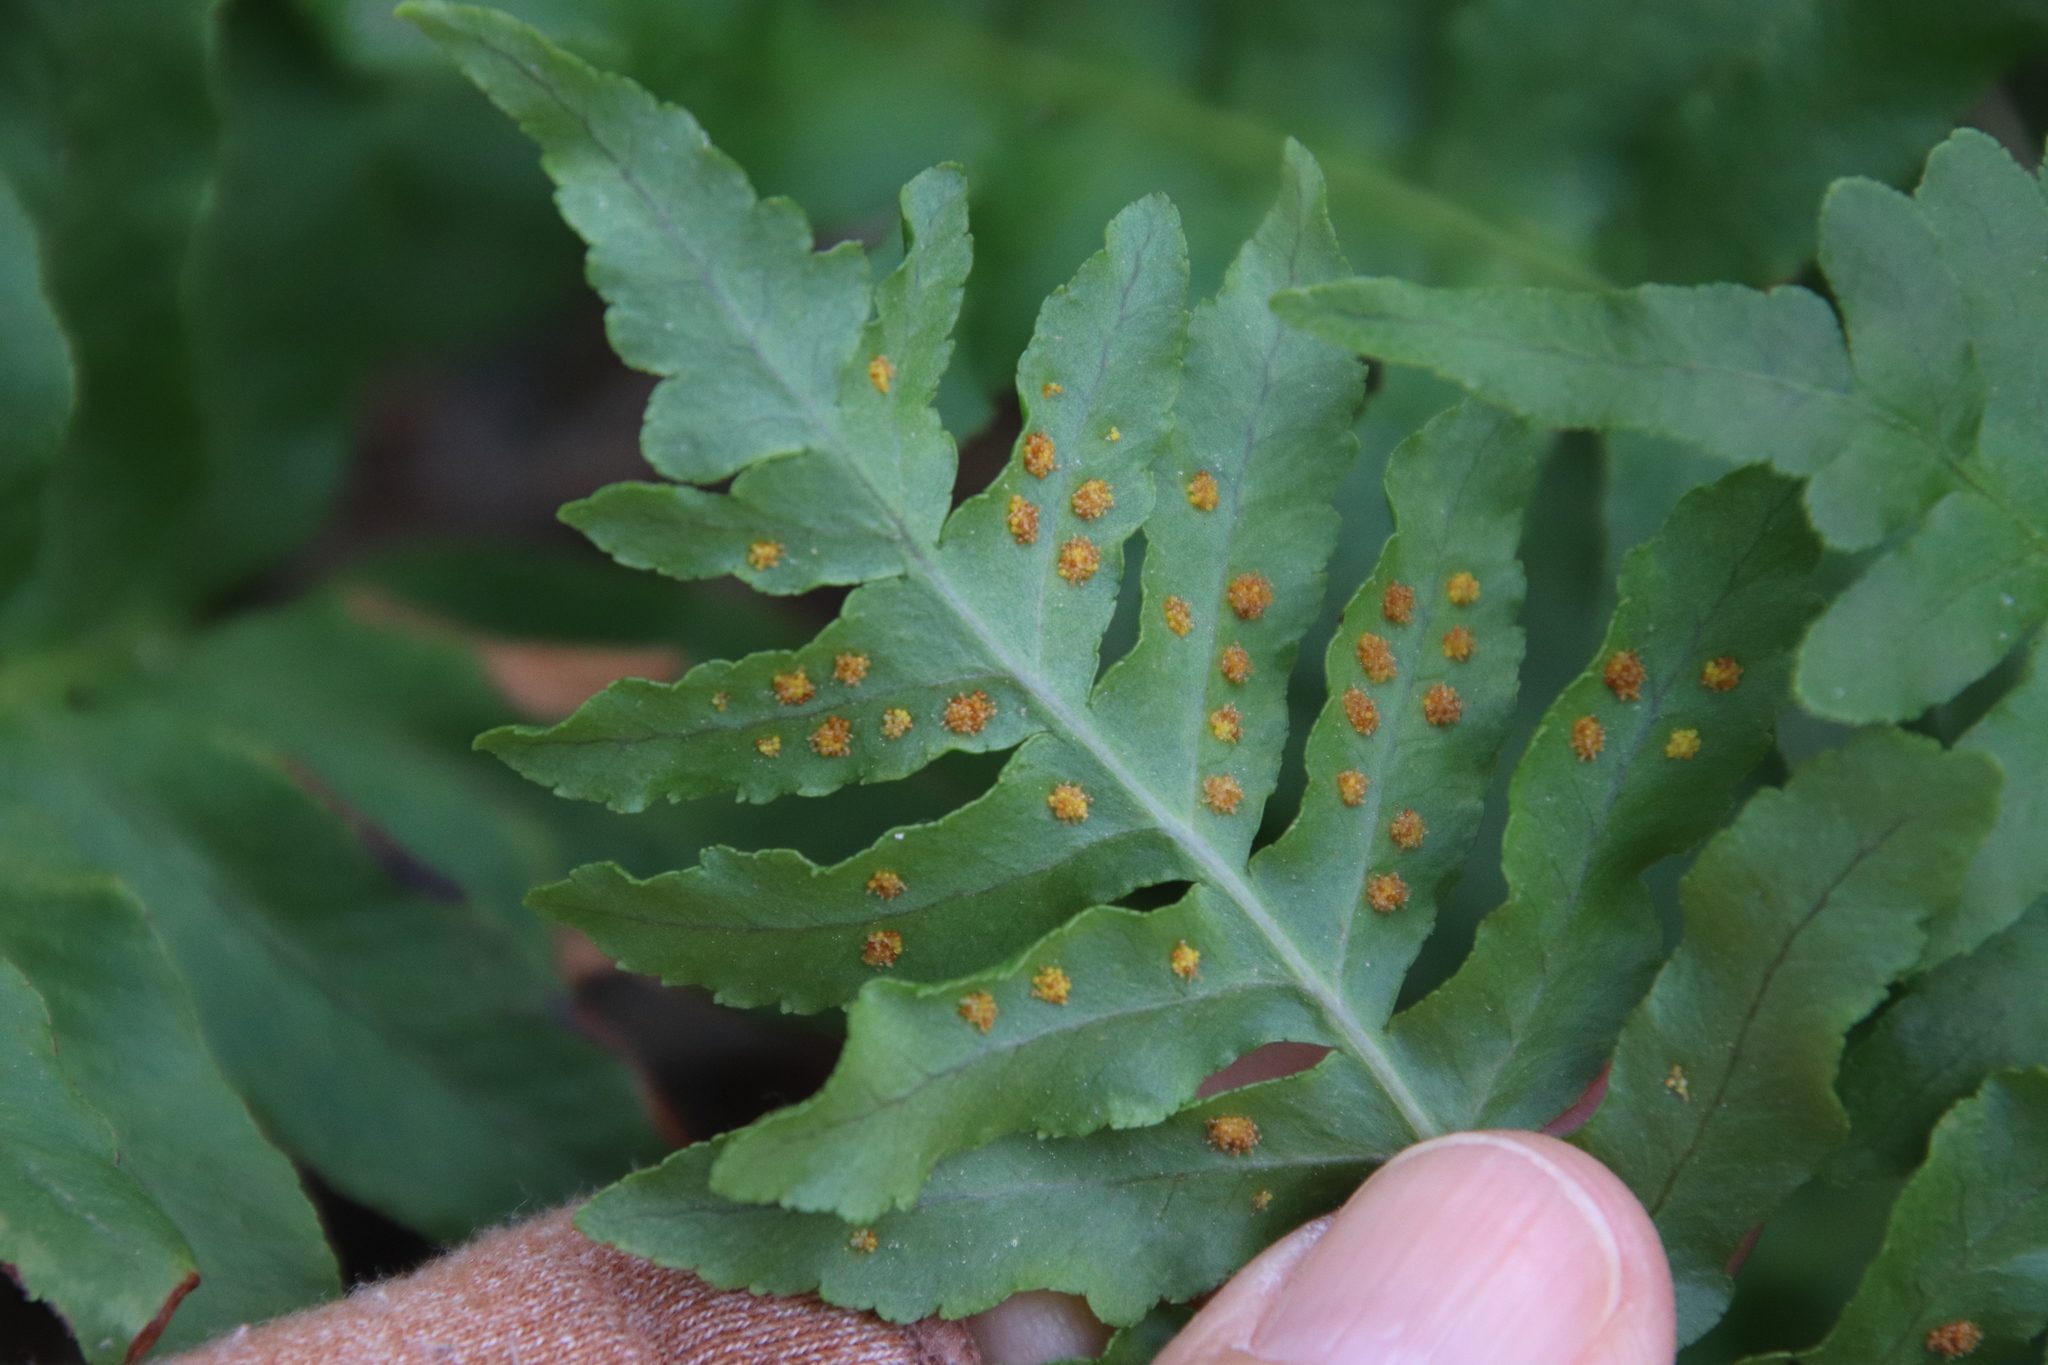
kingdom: Plantae
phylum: Tracheophyta
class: Polypodiopsida
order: Polypodiales
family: Polypodiaceae
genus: Polypodium
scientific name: Polypodium californicum
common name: California polypody
